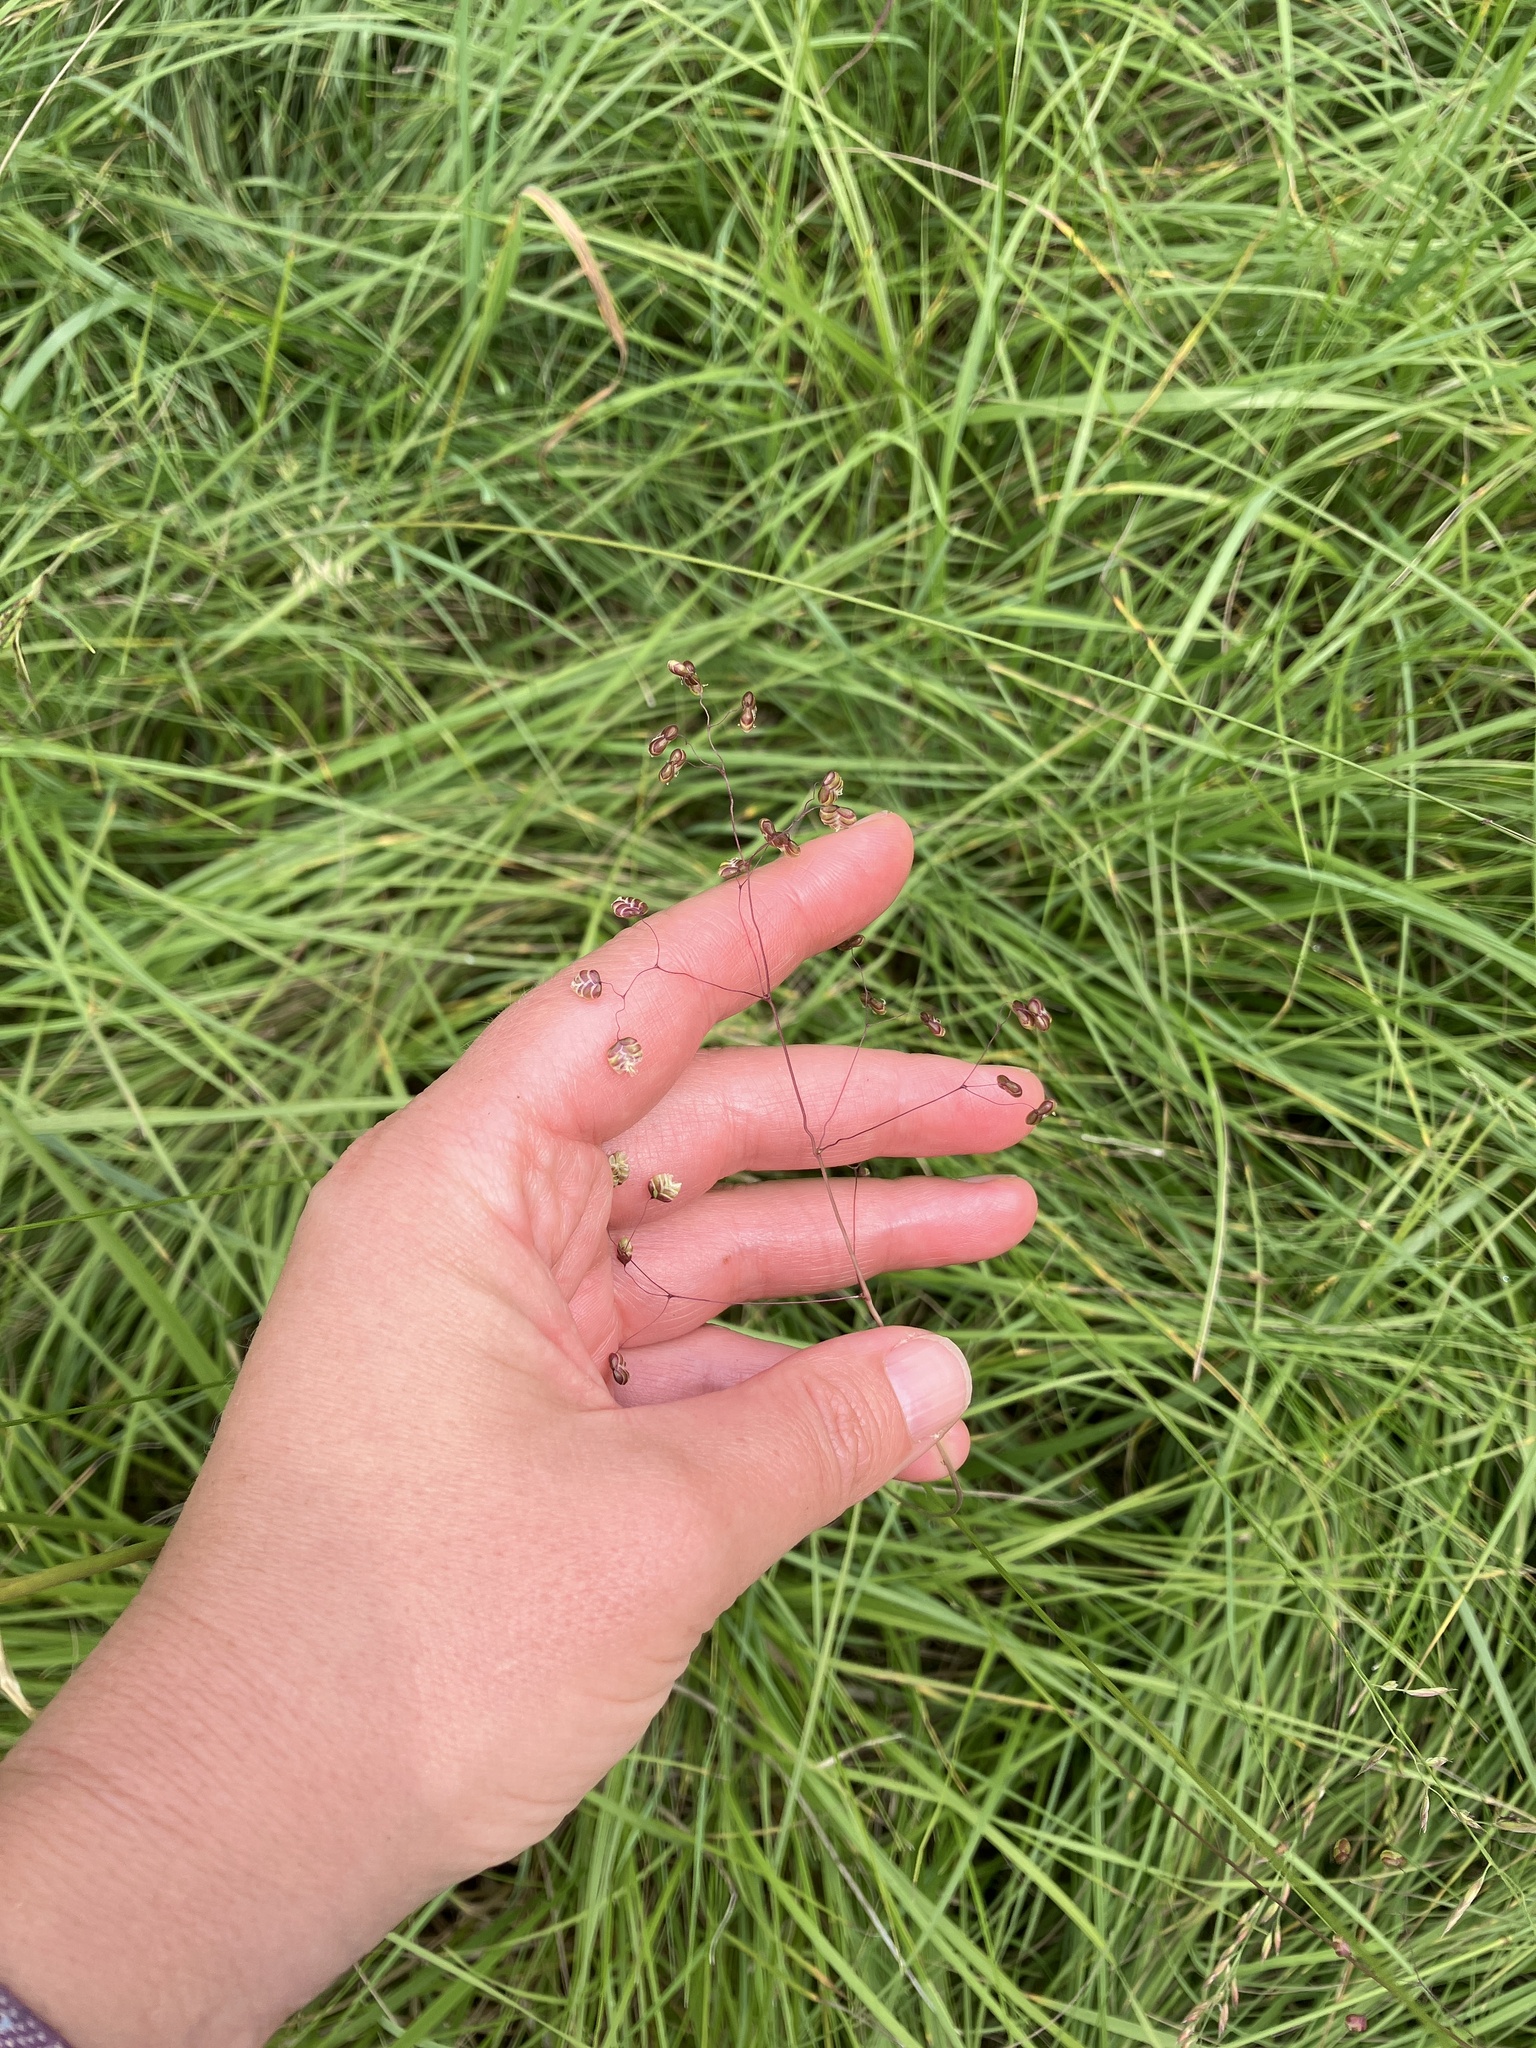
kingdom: Plantae
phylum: Tracheophyta
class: Liliopsida
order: Poales
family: Poaceae
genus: Briza
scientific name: Briza media
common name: Quaking grass
